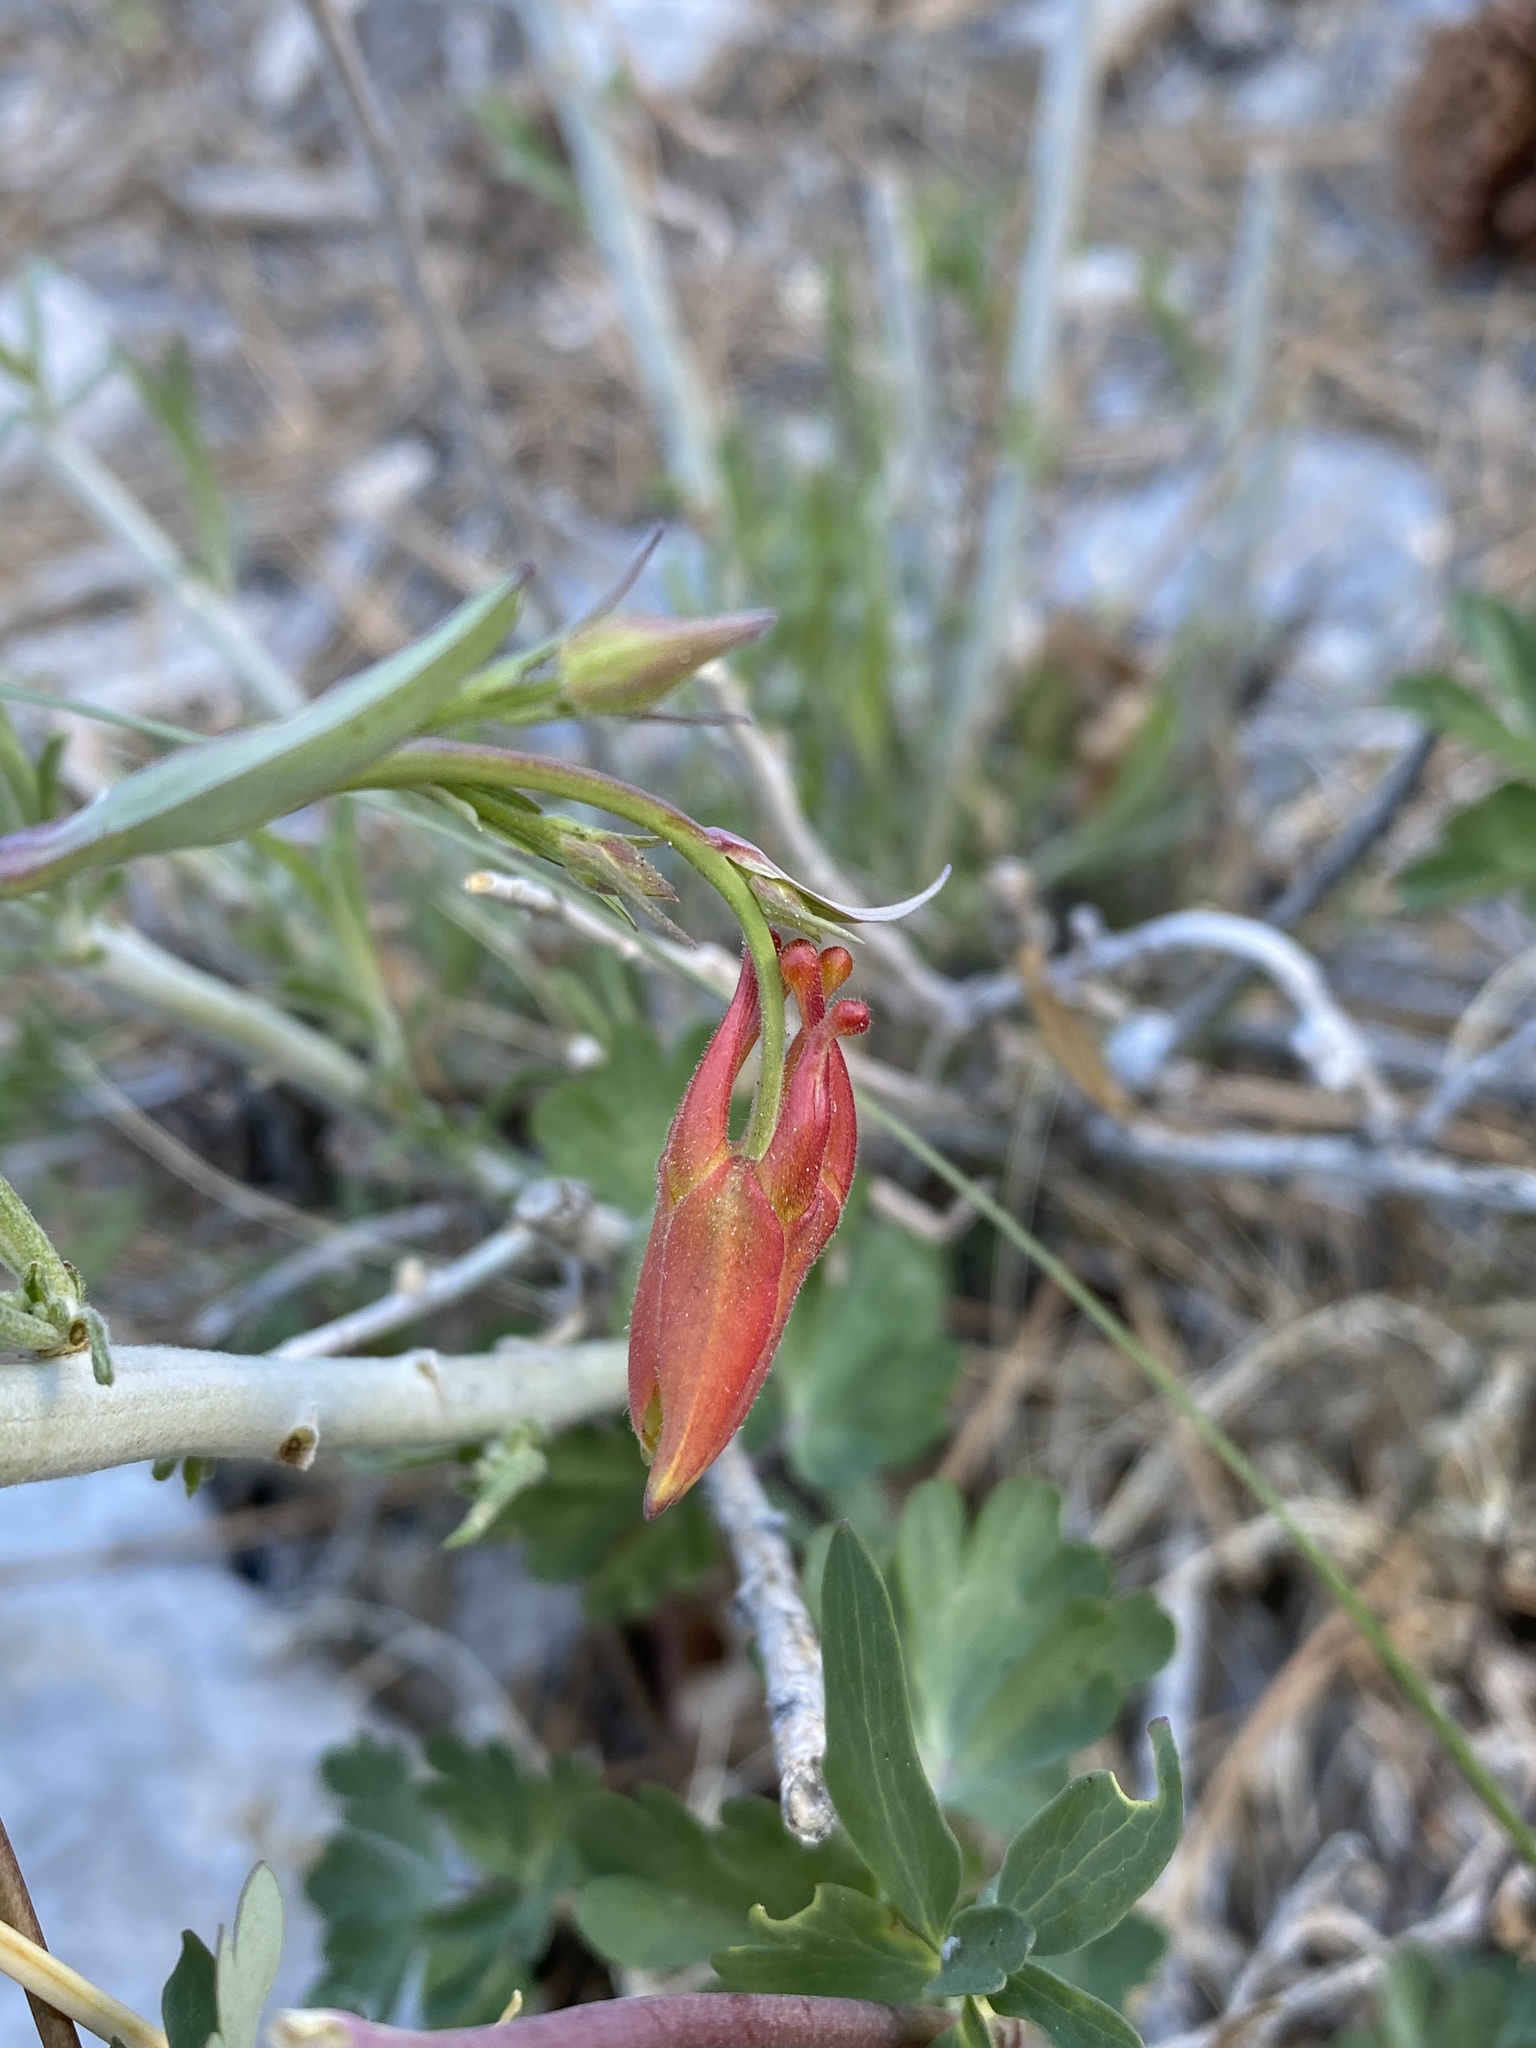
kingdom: Plantae
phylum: Tracheophyta
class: Magnoliopsida
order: Ranunculales
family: Ranunculaceae
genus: Aquilegia
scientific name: Aquilegia formosa
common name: Sitka columbine
